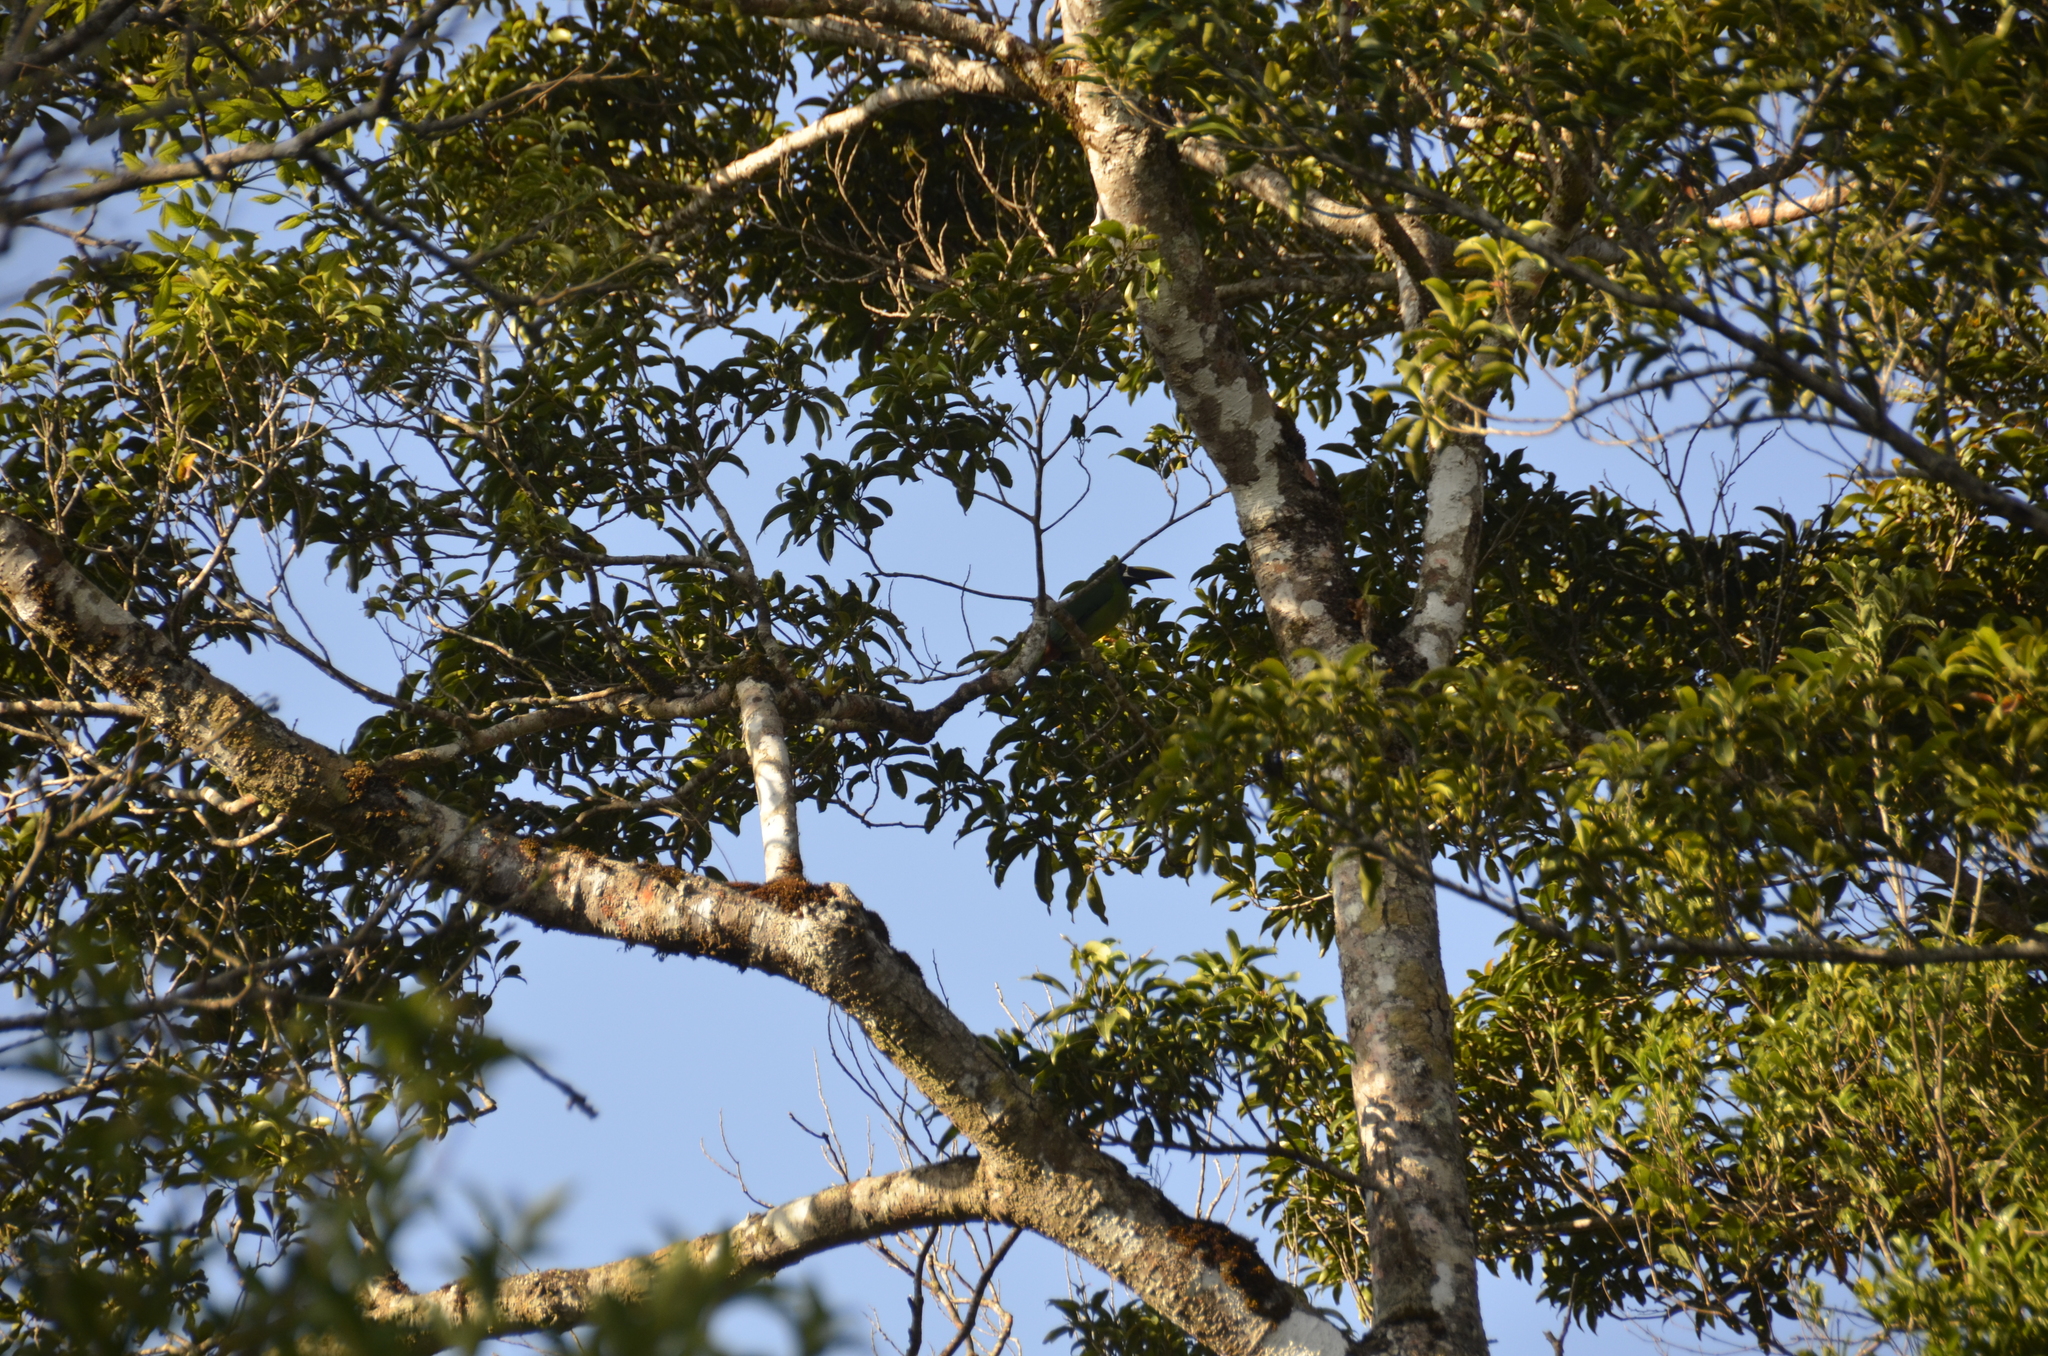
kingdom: Animalia
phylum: Chordata
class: Aves
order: Piciformes
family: Ramphastidae
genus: Aulacorhynchus
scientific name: Aulacorhynchus prasinus
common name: Emerald toucanet
